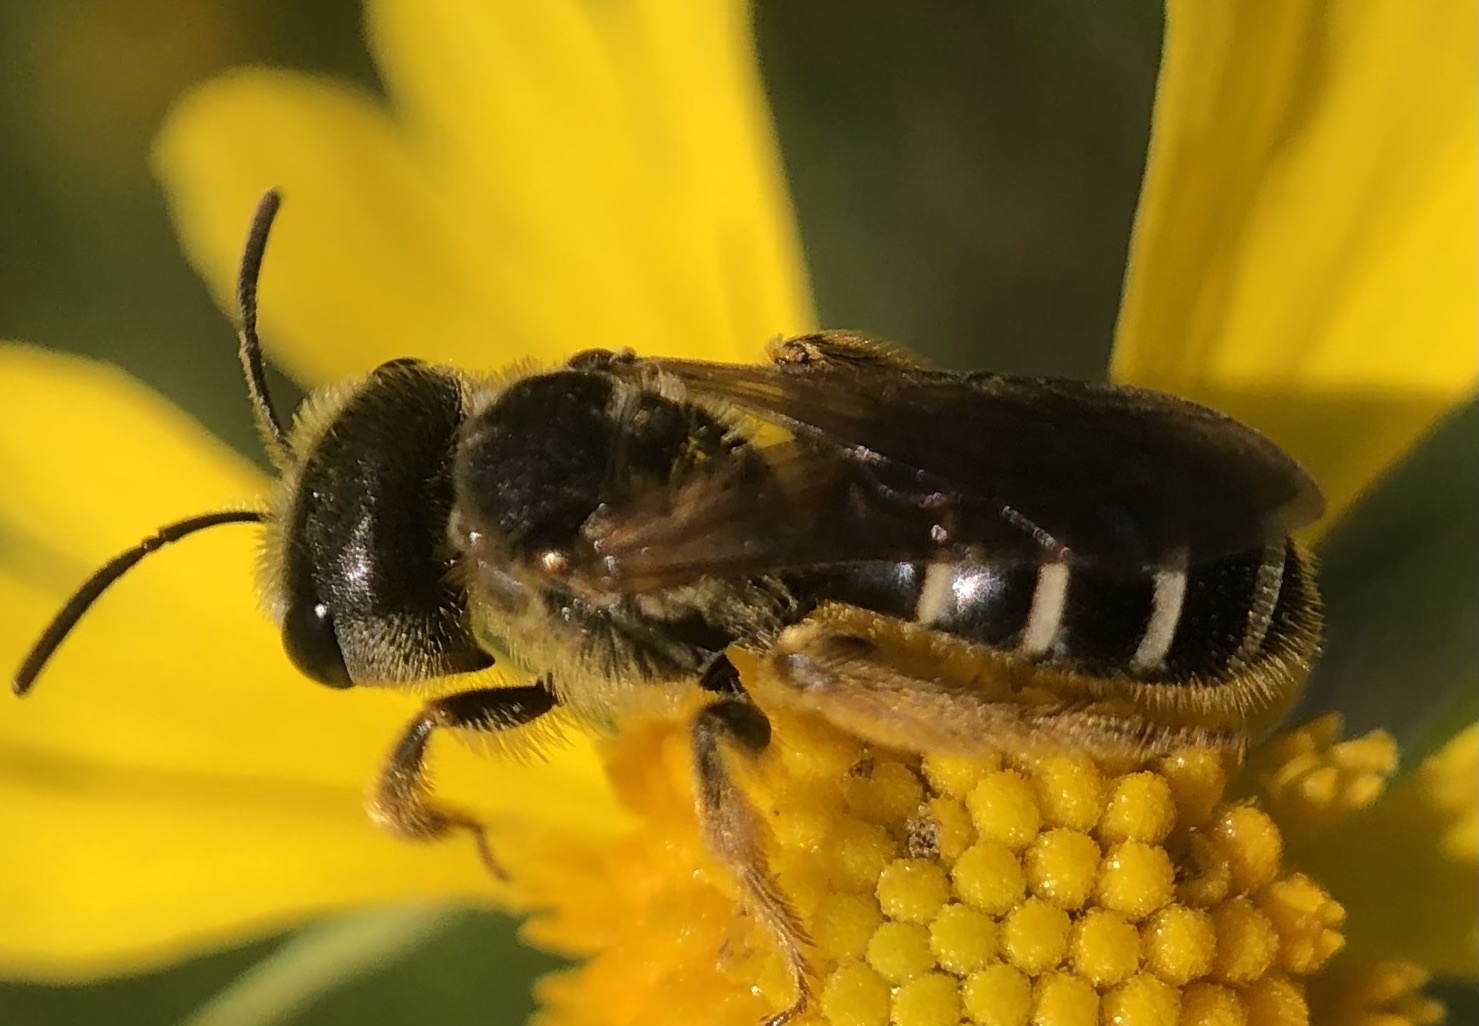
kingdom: Animalia
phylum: Arthropoda
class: Insecta
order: Hymenoptera
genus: Odontalictus
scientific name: Odontalictus
